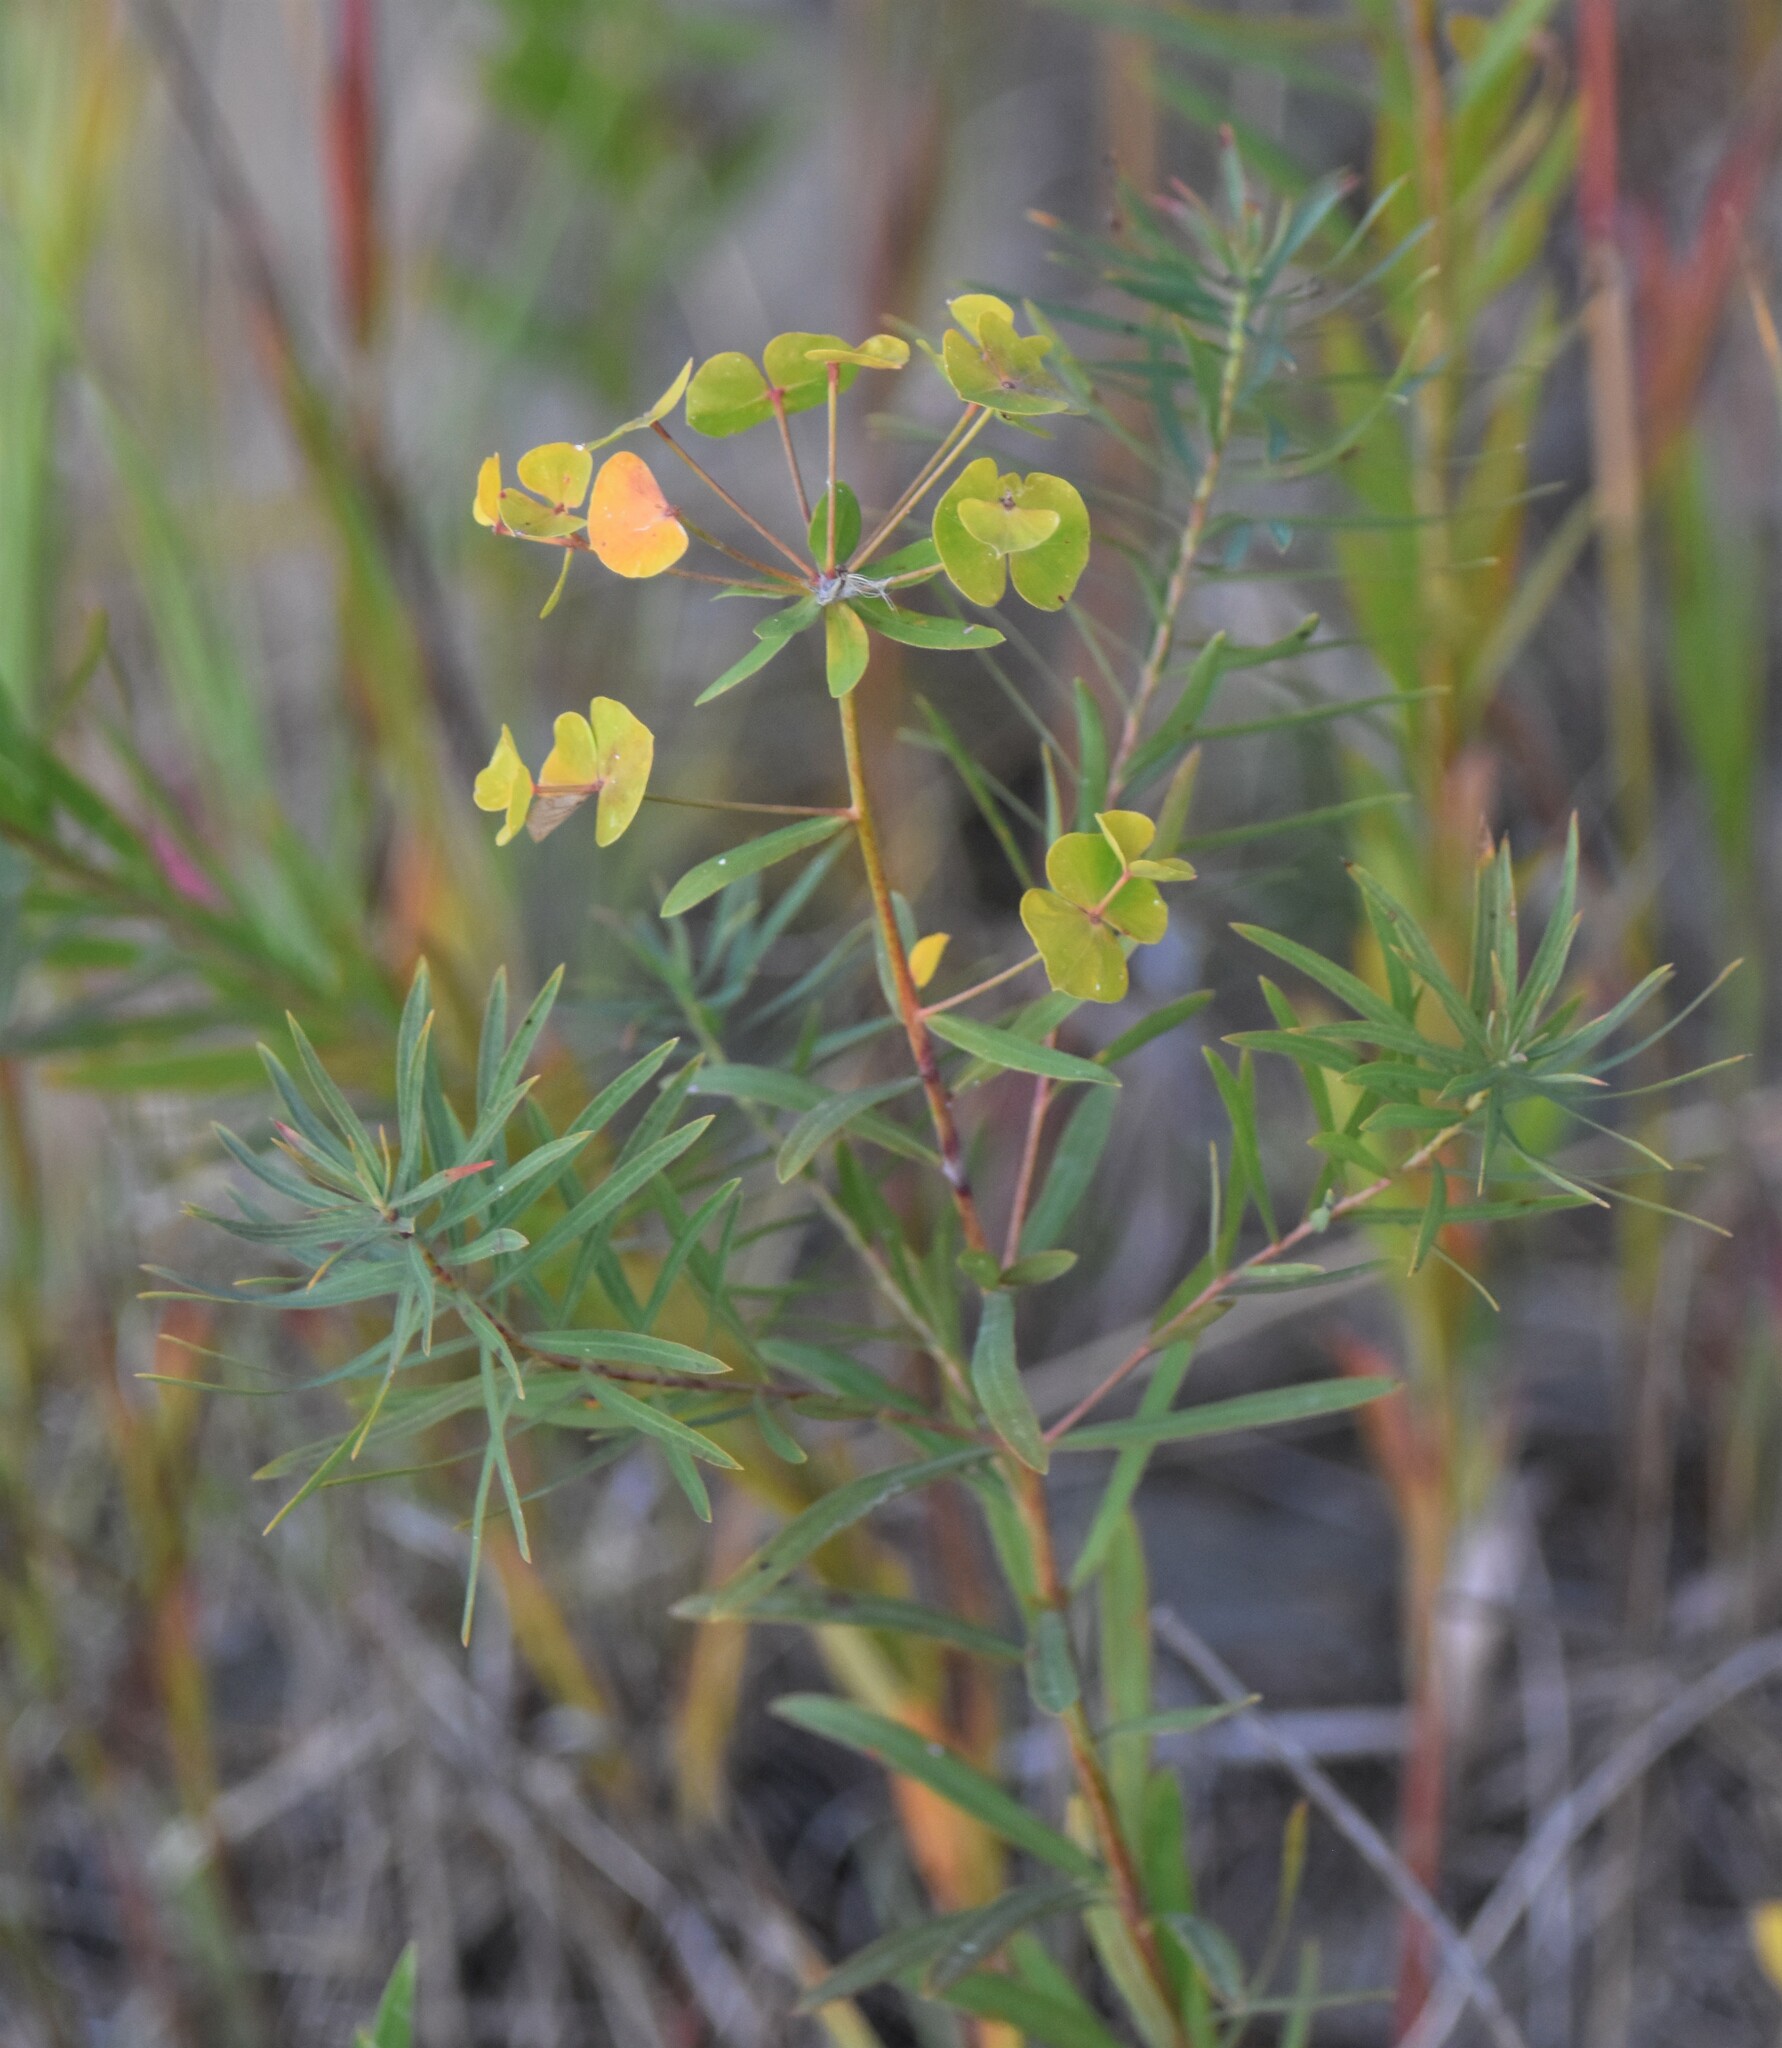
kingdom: Plantae
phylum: Tracheophyta
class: Magnoliopsida
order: Malpighiales
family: Euphorbiaceae
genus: Euphorbia
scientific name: Euphorbia virgata
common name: Leafy spurge
